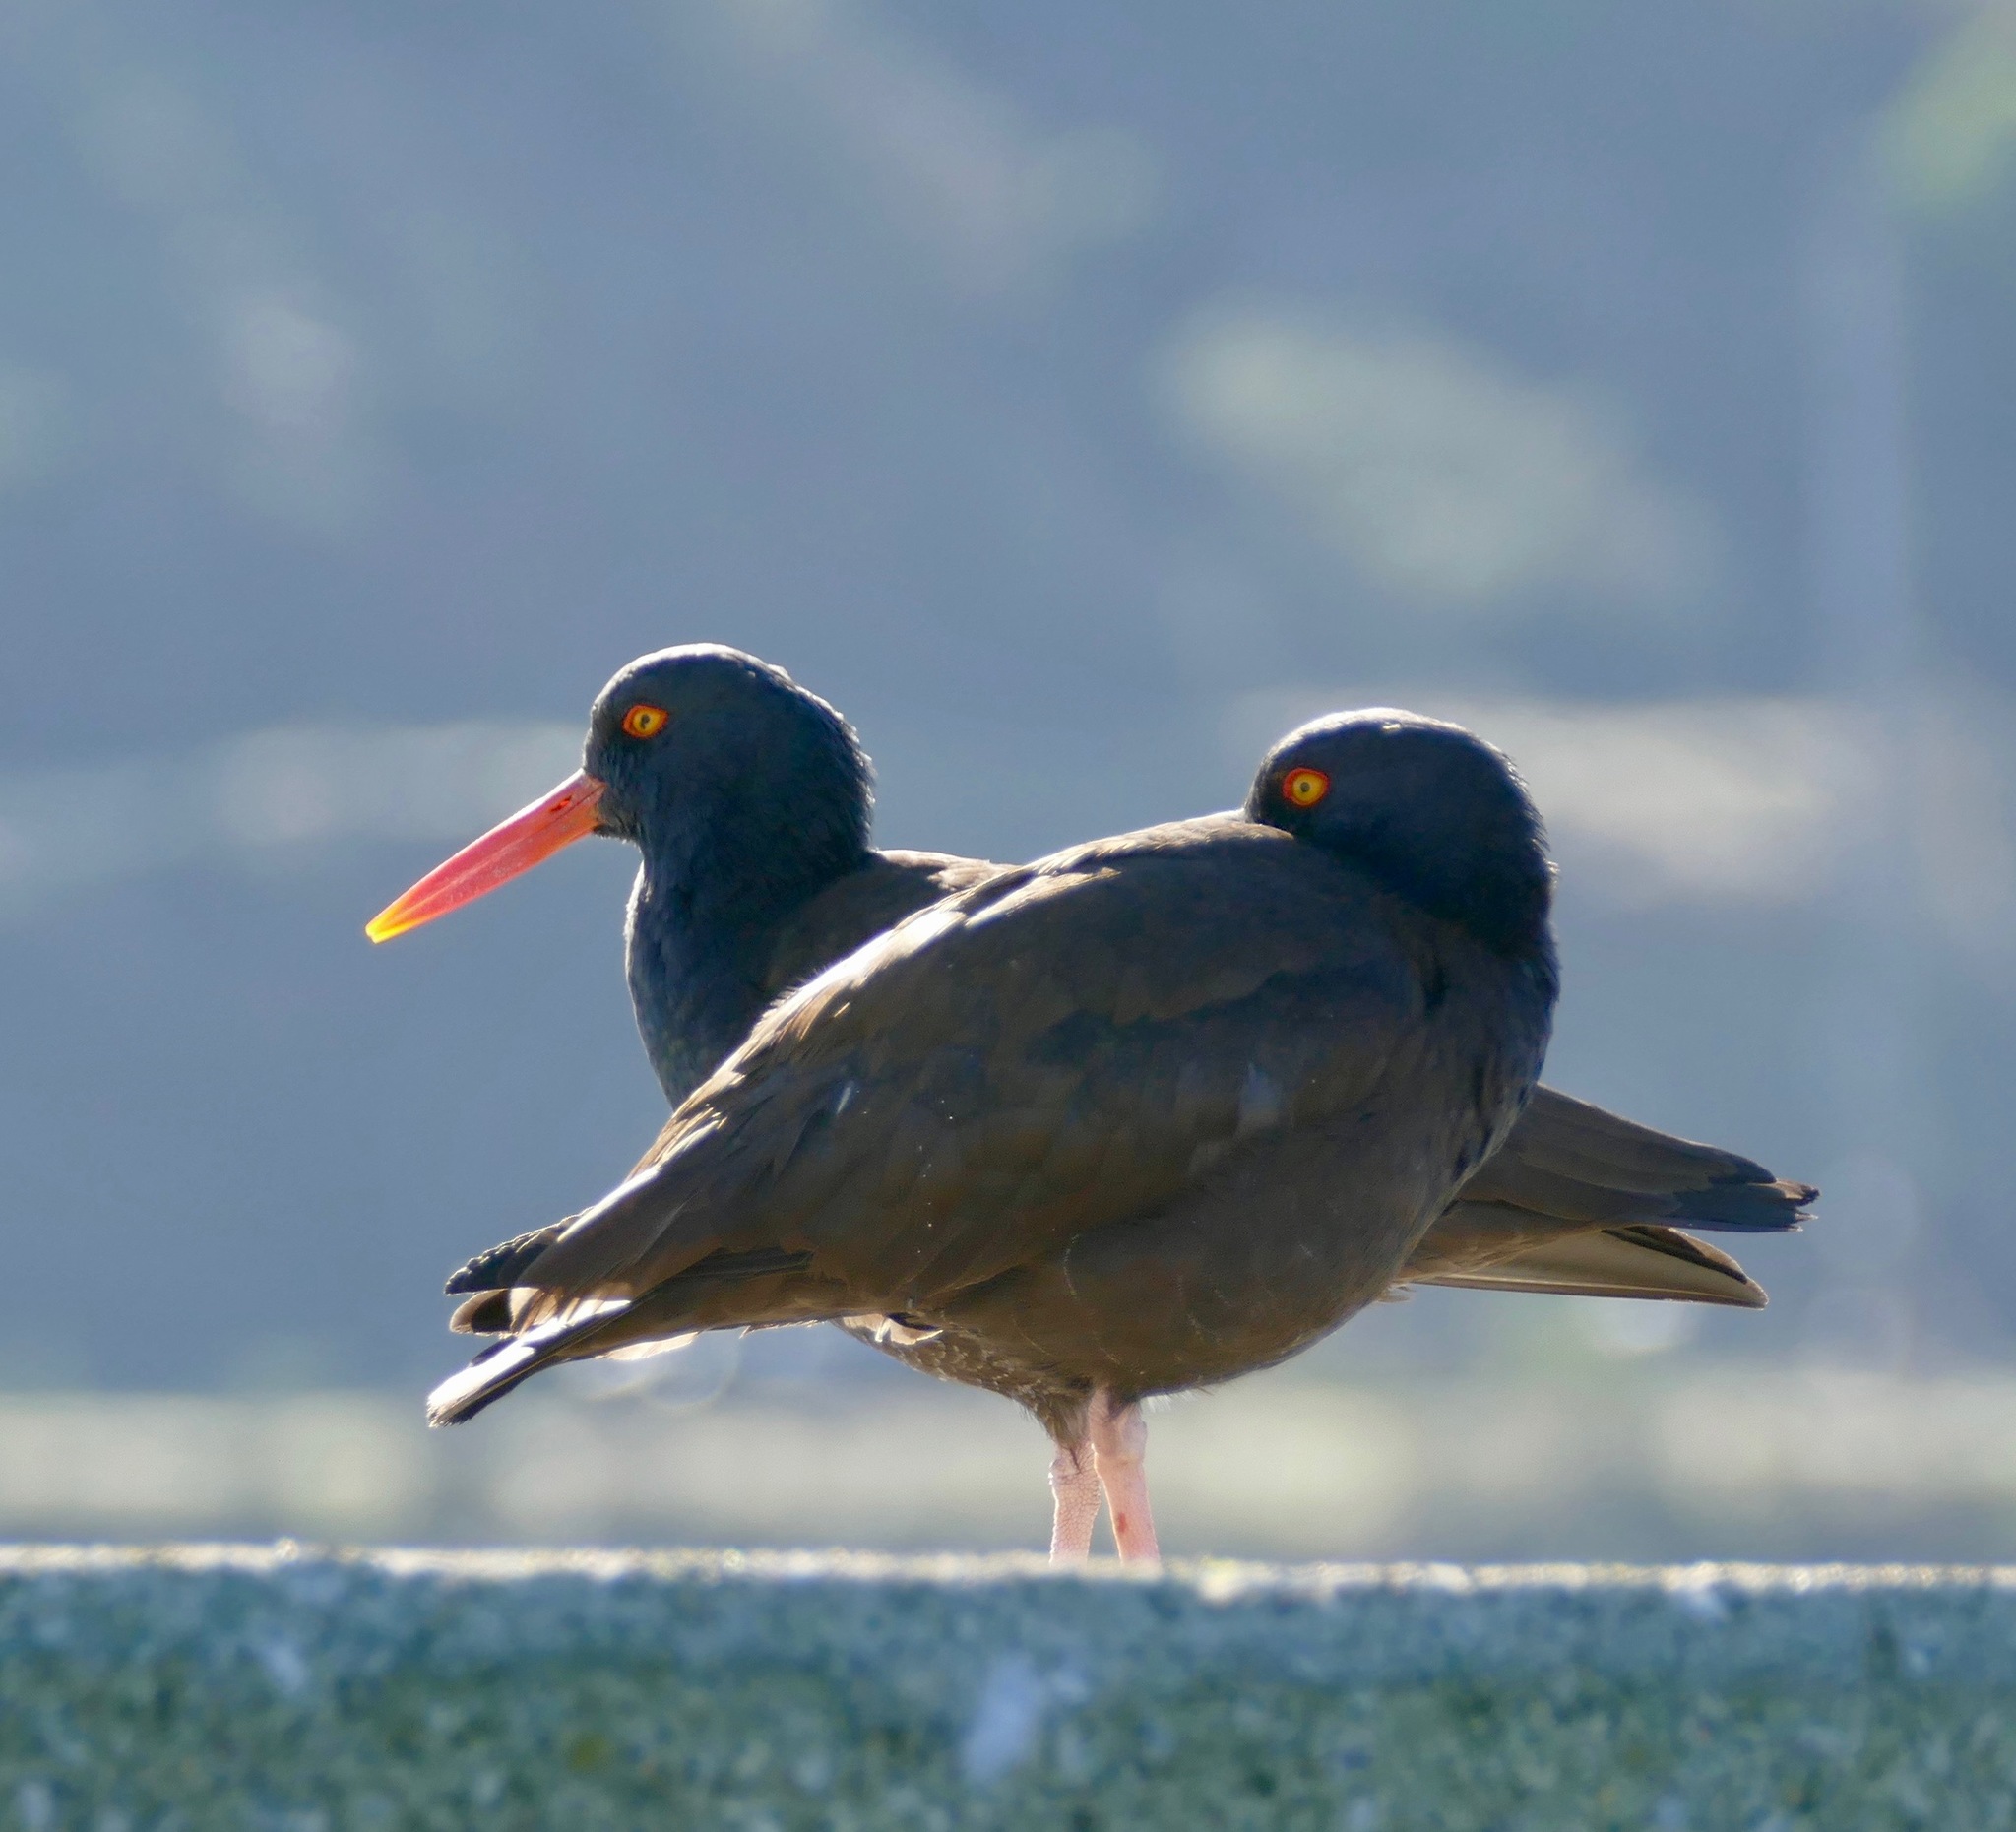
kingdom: Animalia
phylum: Chordata
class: Aves
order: Charadriiformes
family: Haematopodidae
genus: Haematopus
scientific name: Haematopus bachmani
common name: Black oystercatcher
